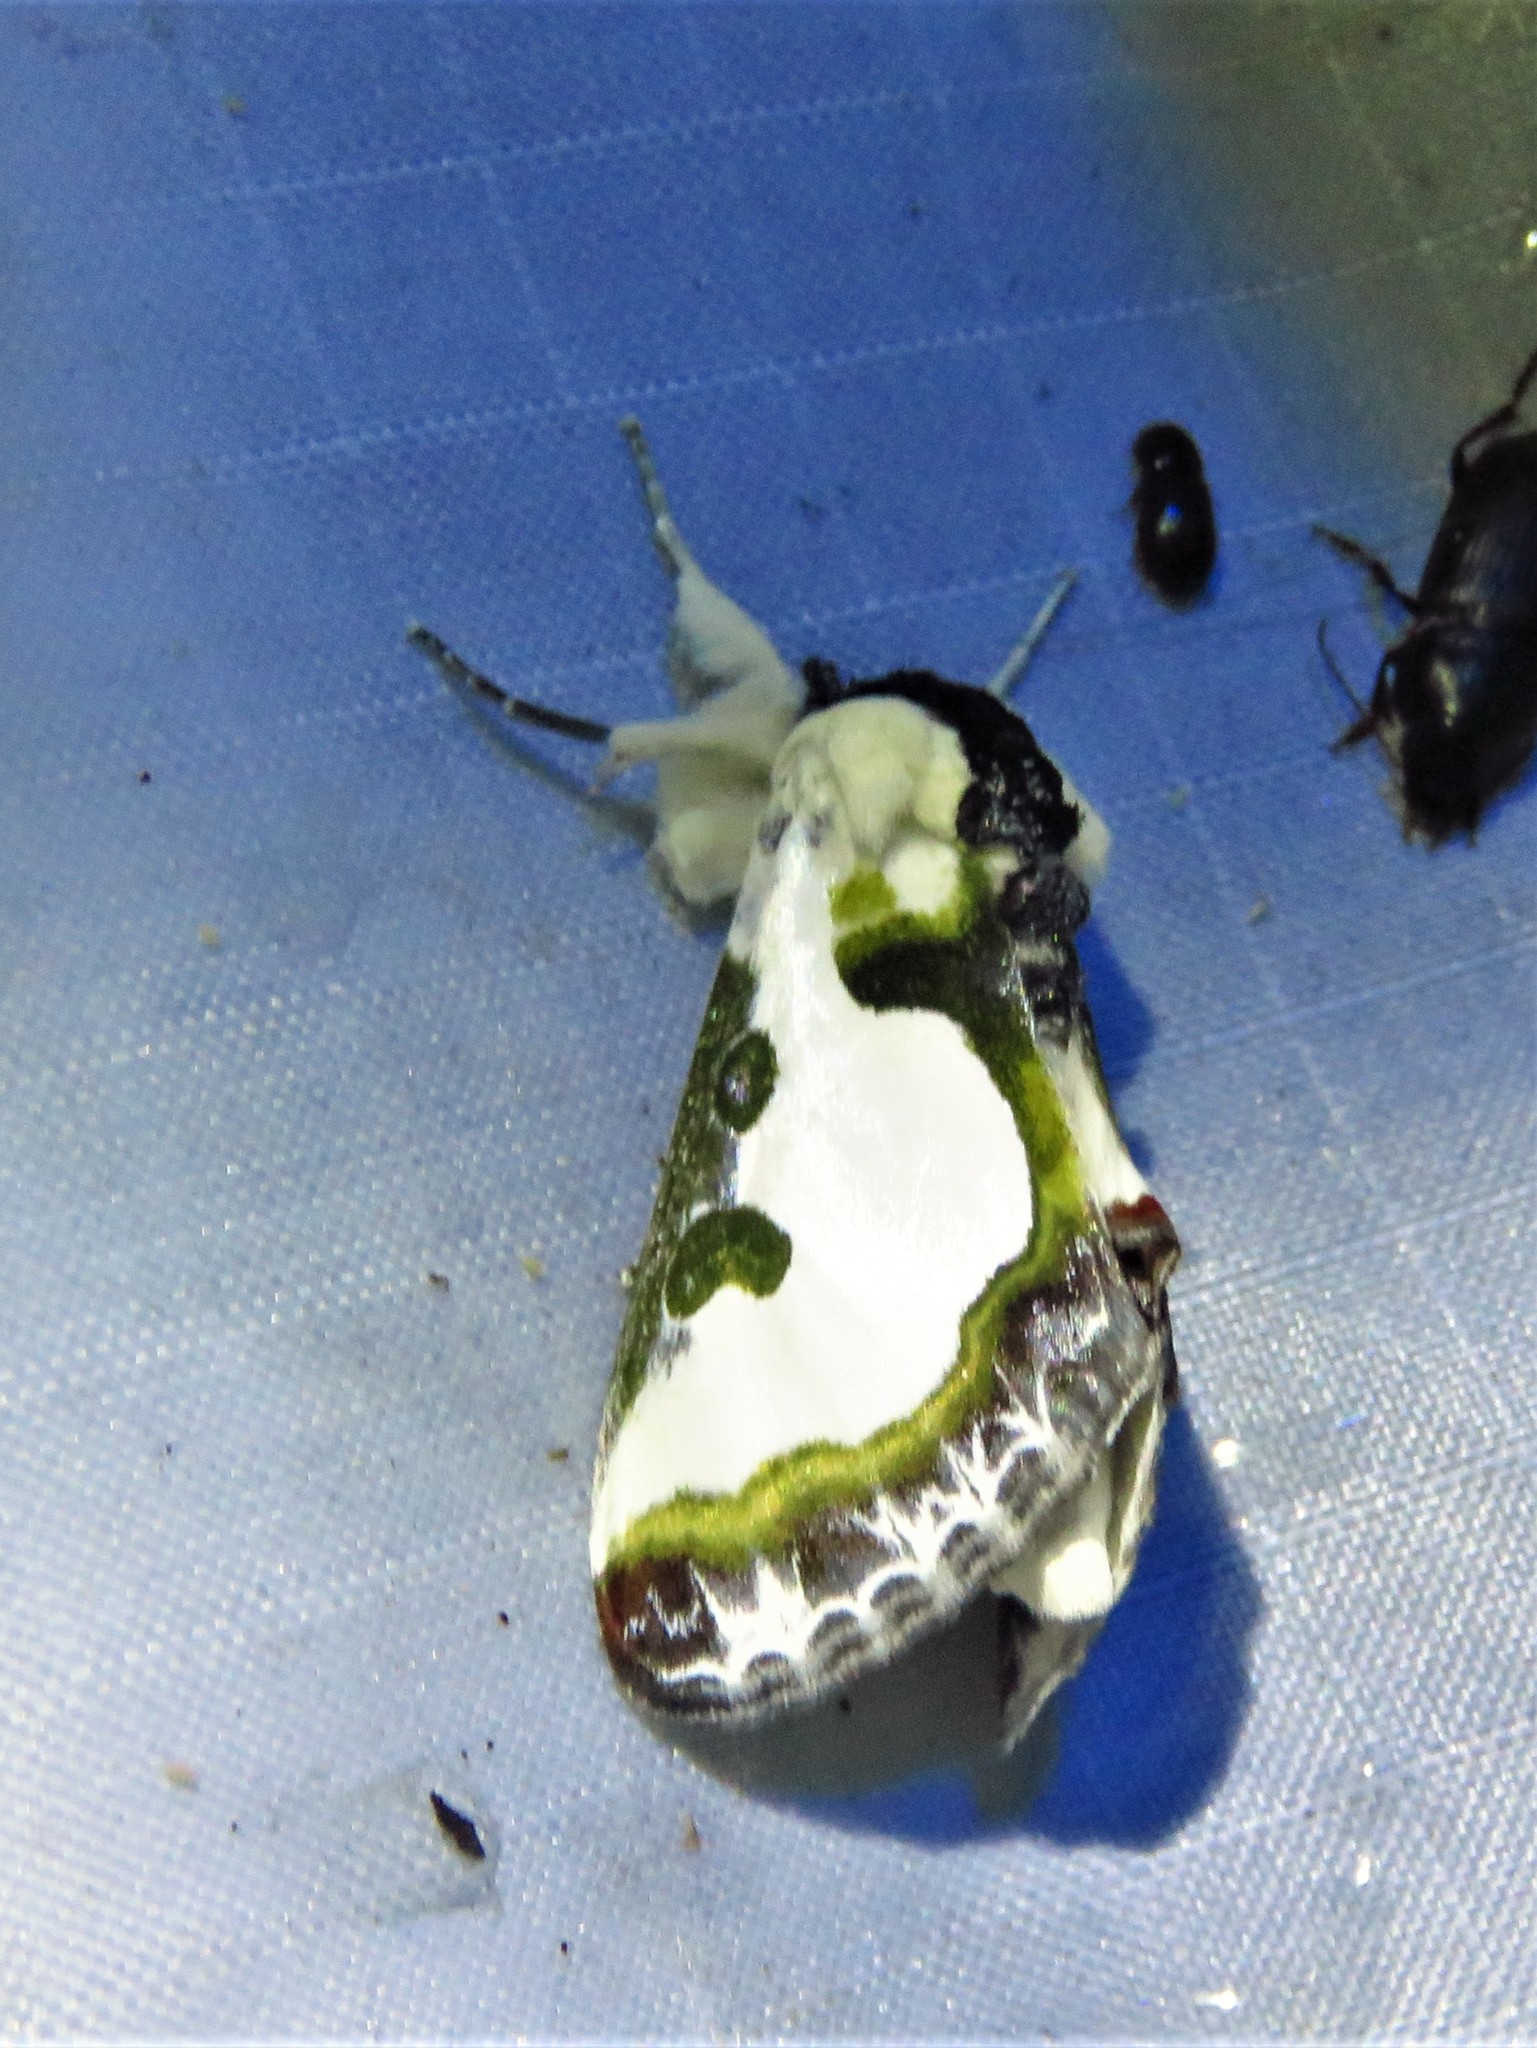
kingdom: Animalia
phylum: Arthropoda
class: Insecta
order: Lepidoptera
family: Noctuidae
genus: Xerociris
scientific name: Xerociris wilsonii
